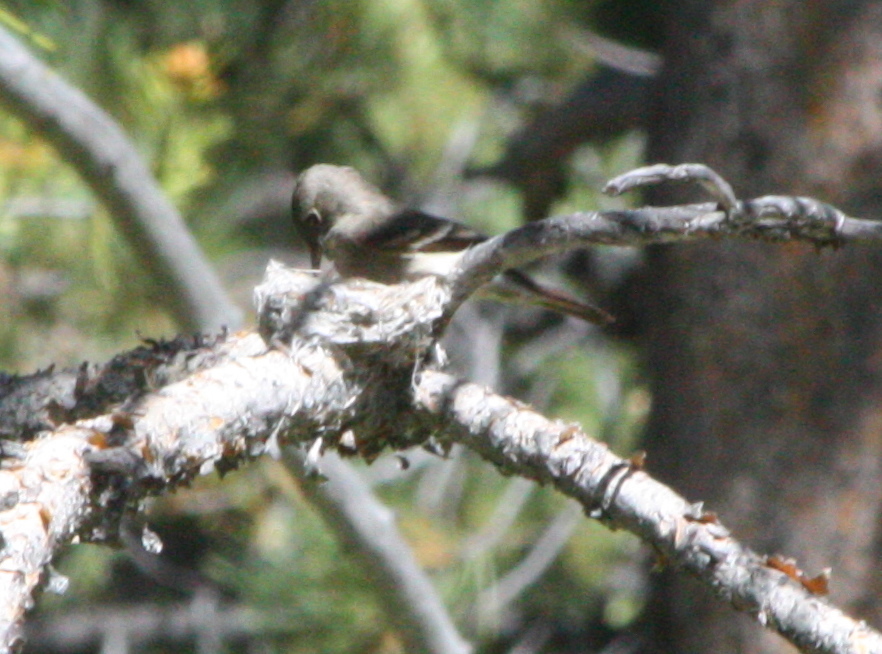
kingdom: Animalia
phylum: Chordata
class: Aves
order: Passeriformes
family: Tyrannidae
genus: Contopus
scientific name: Contopus sordidulus
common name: Western wood-pewee
